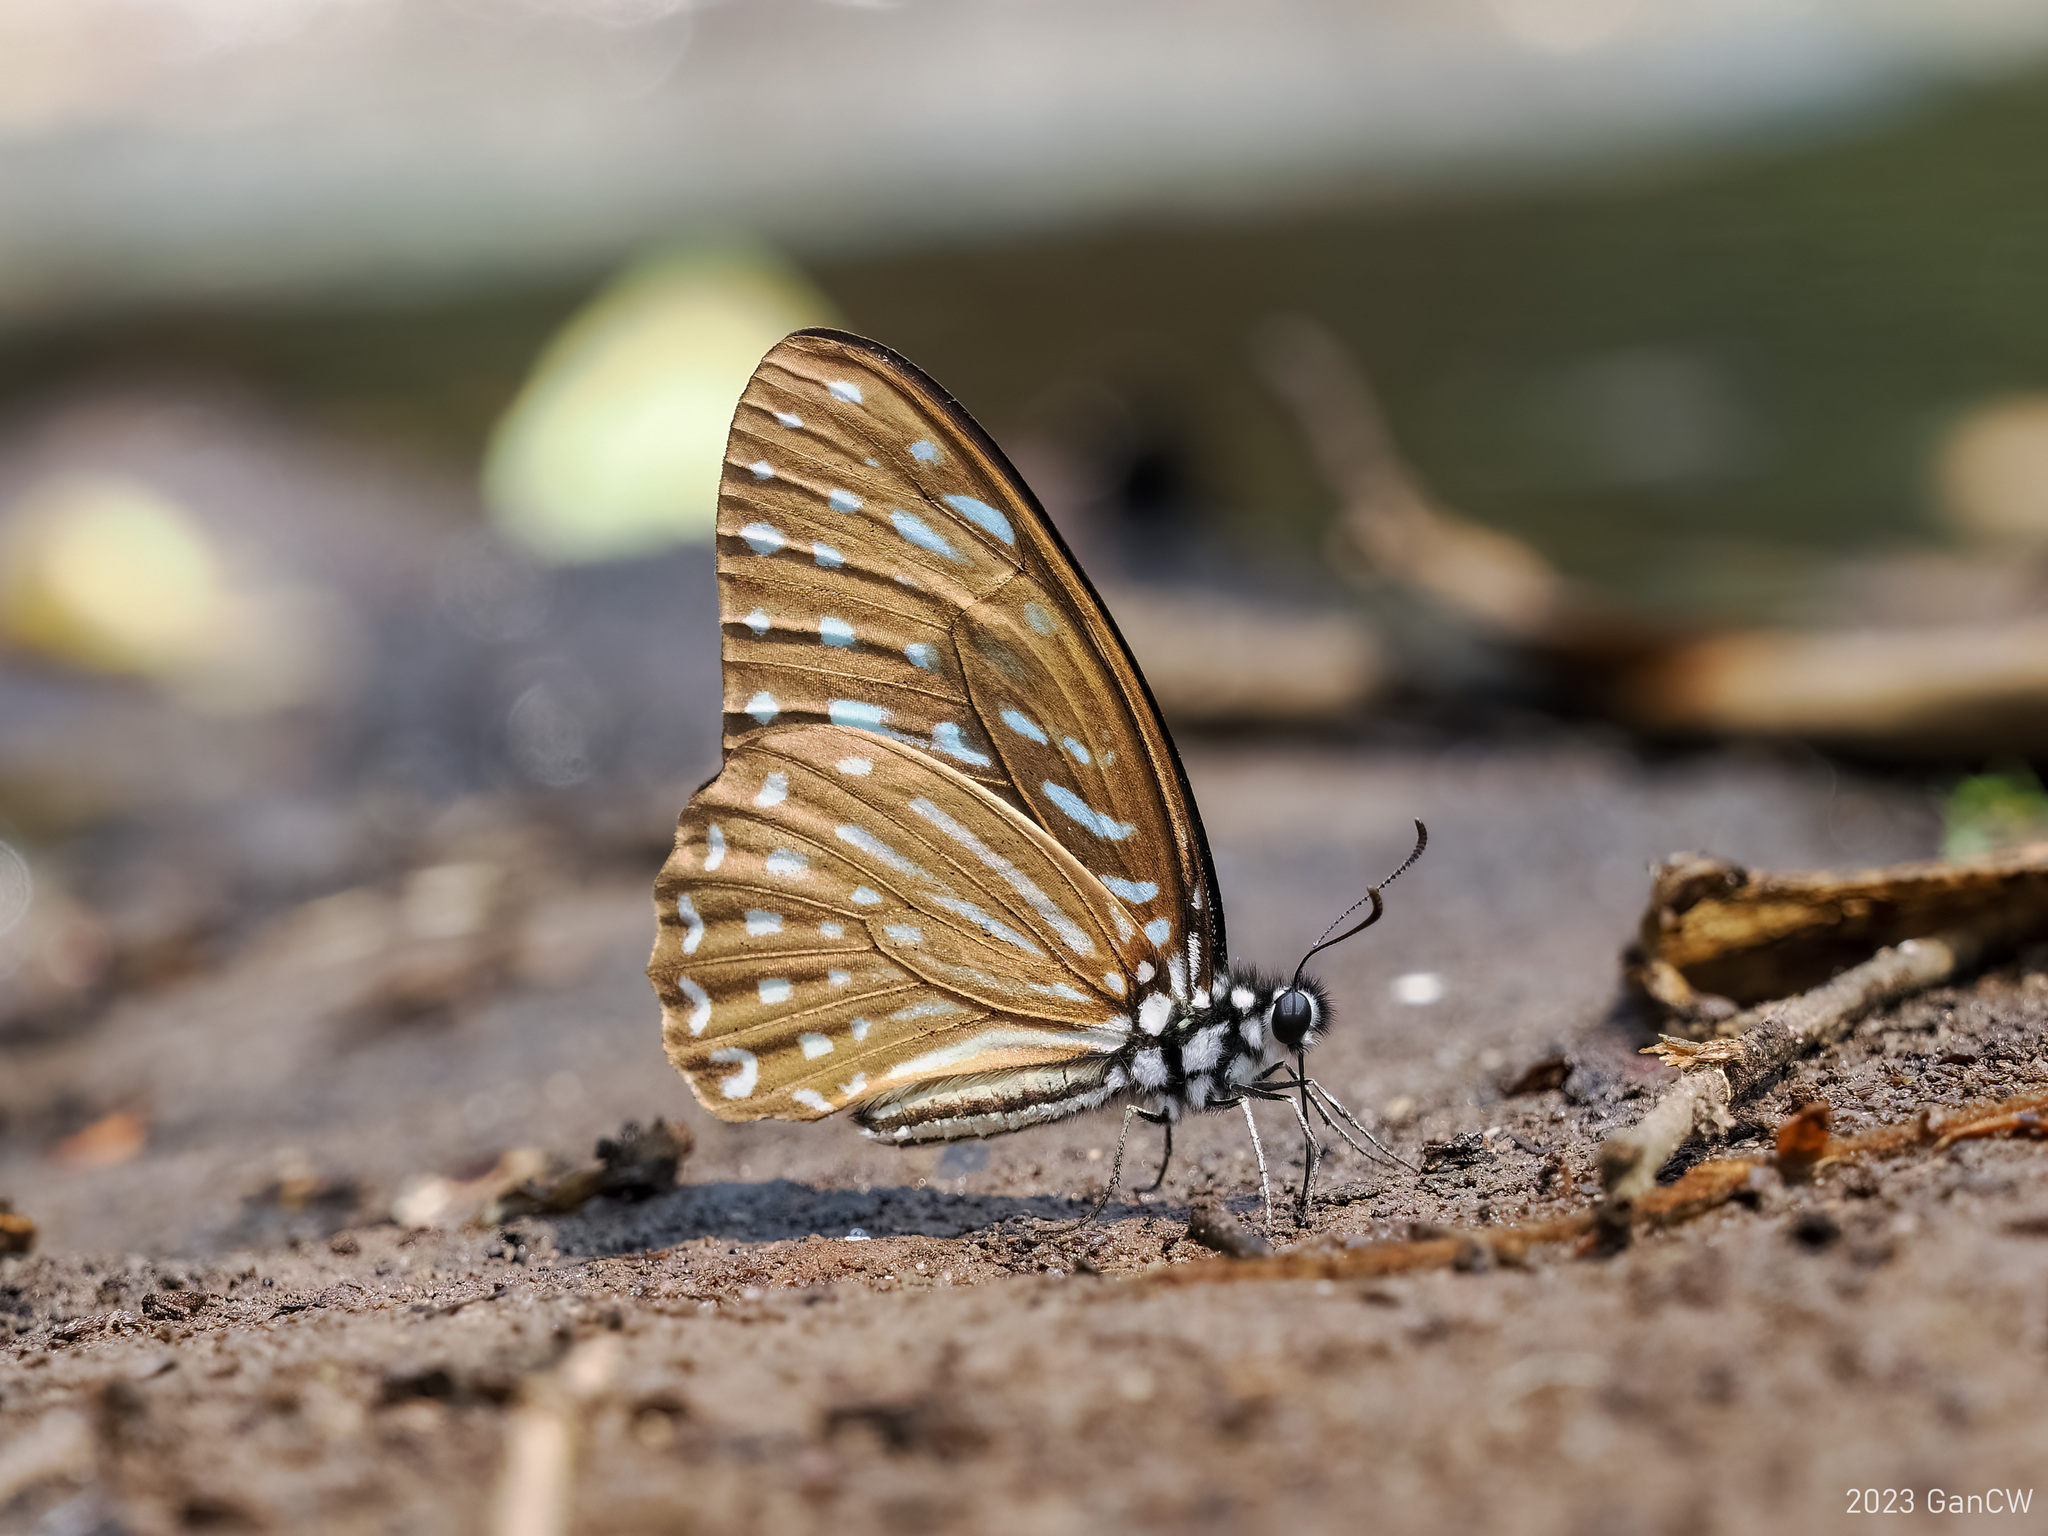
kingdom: Animalia
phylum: Arthropoda
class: Insecta
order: Lepidoptera
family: Papilionidae
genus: Graphium
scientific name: Graphium megarus
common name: Spotted zebra
